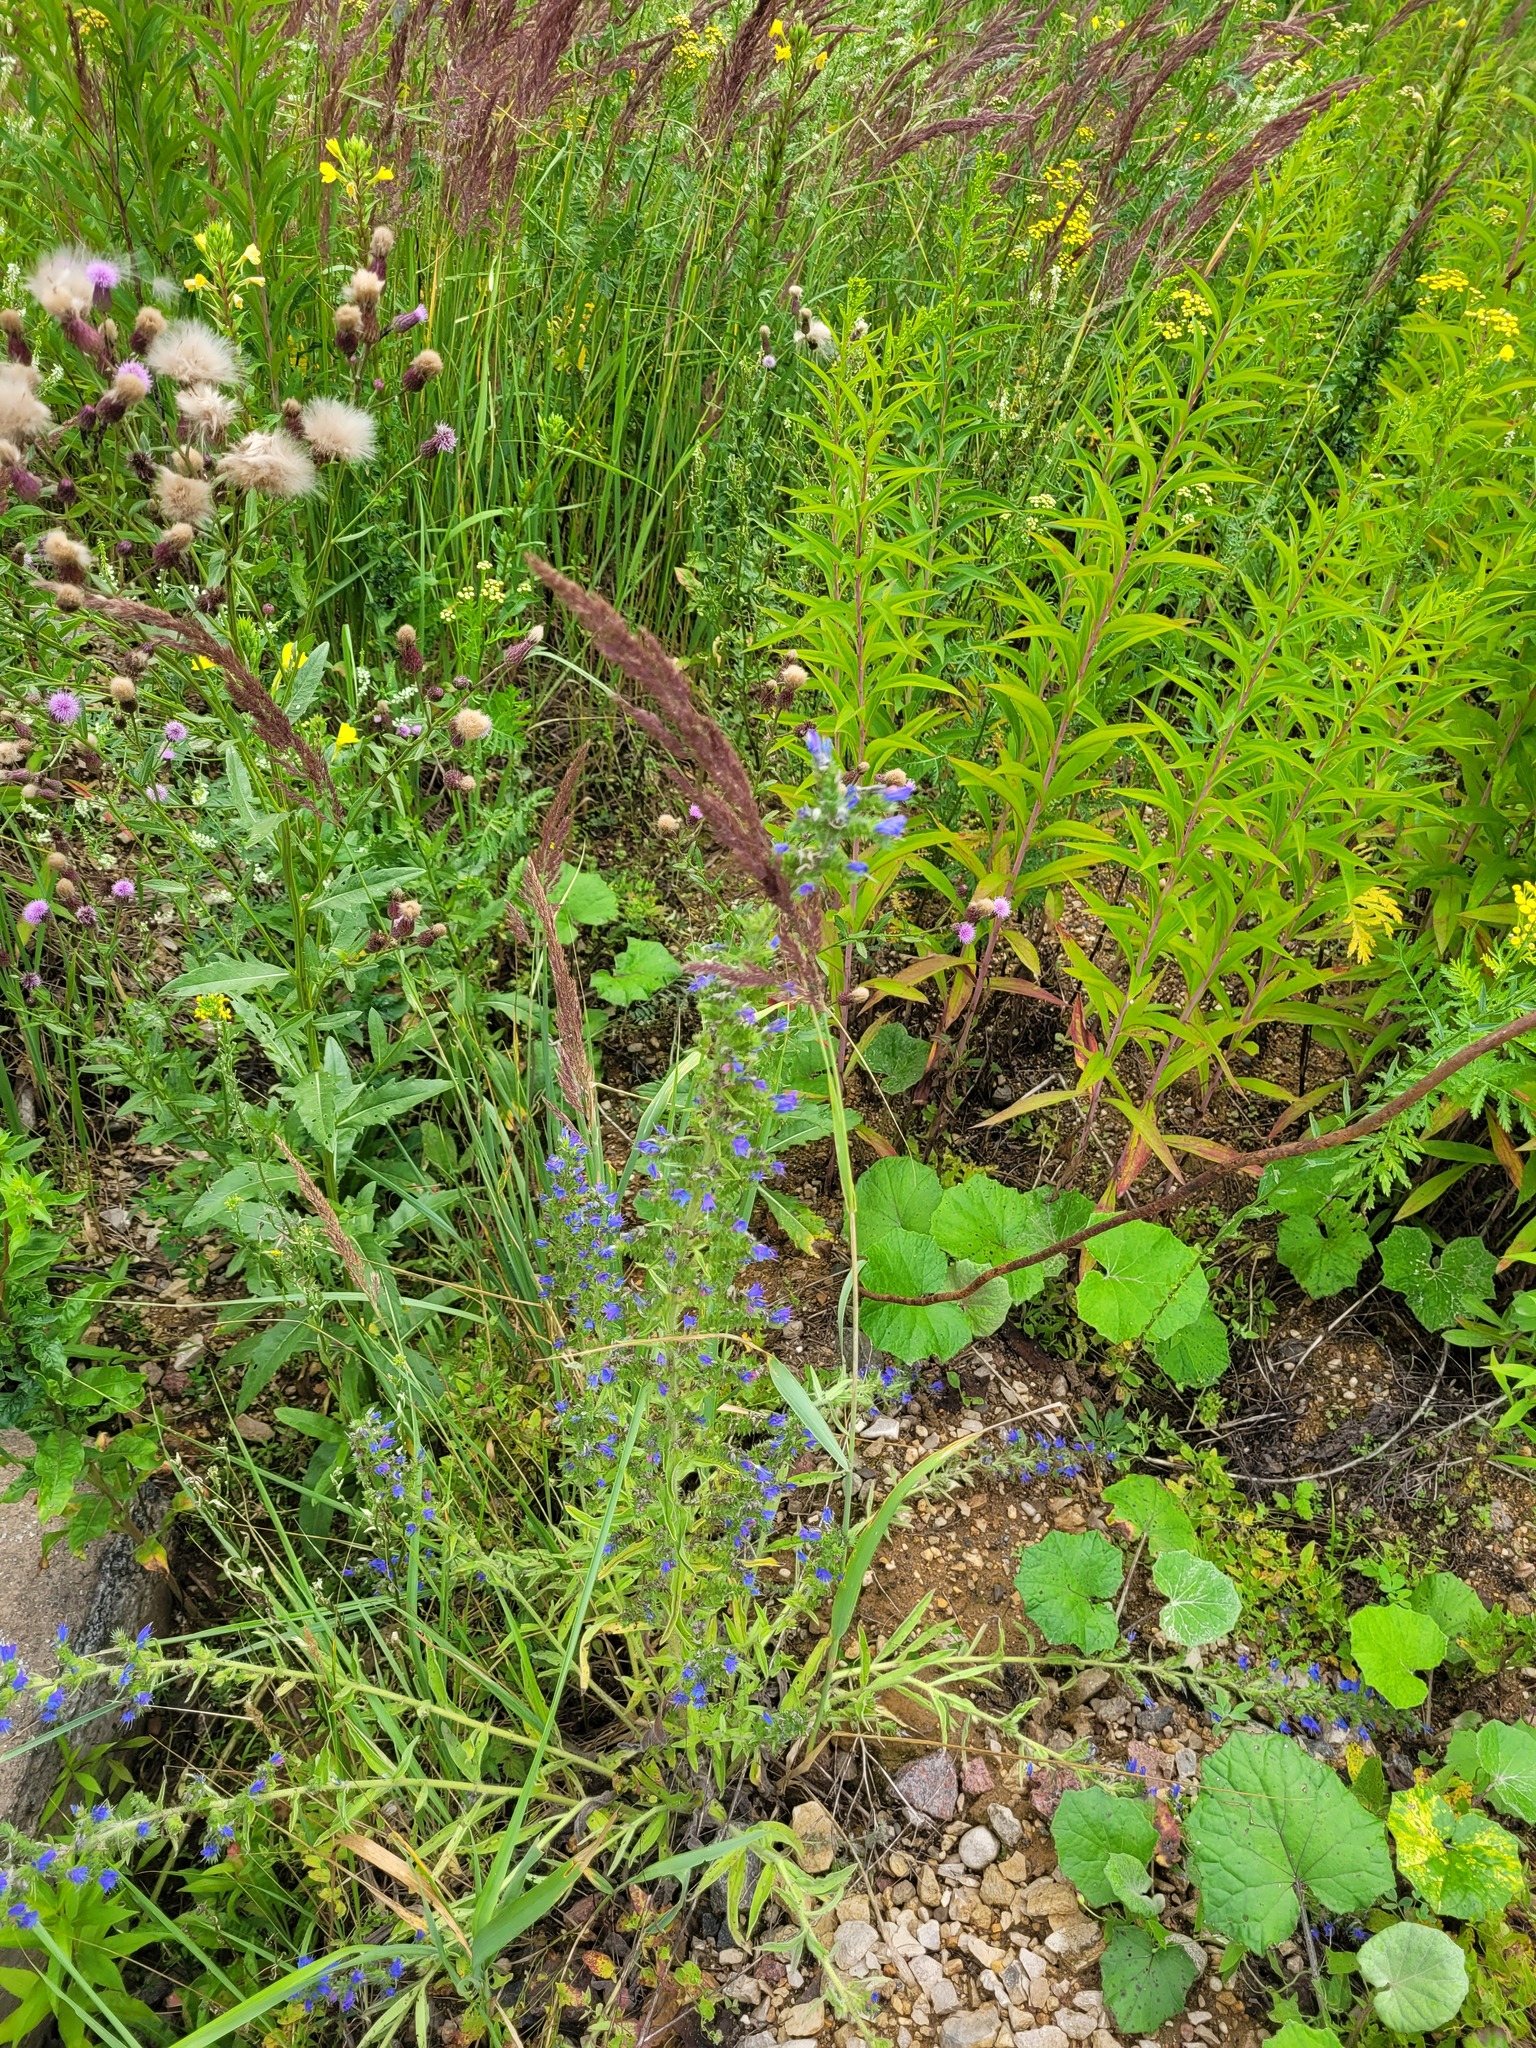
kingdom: Plantae
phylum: Tracheophyta
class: Magnoliopsida
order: Boraginales
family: Boraginaceae
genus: Echium
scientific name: Echium vulgare
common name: Common viper's bugloss
